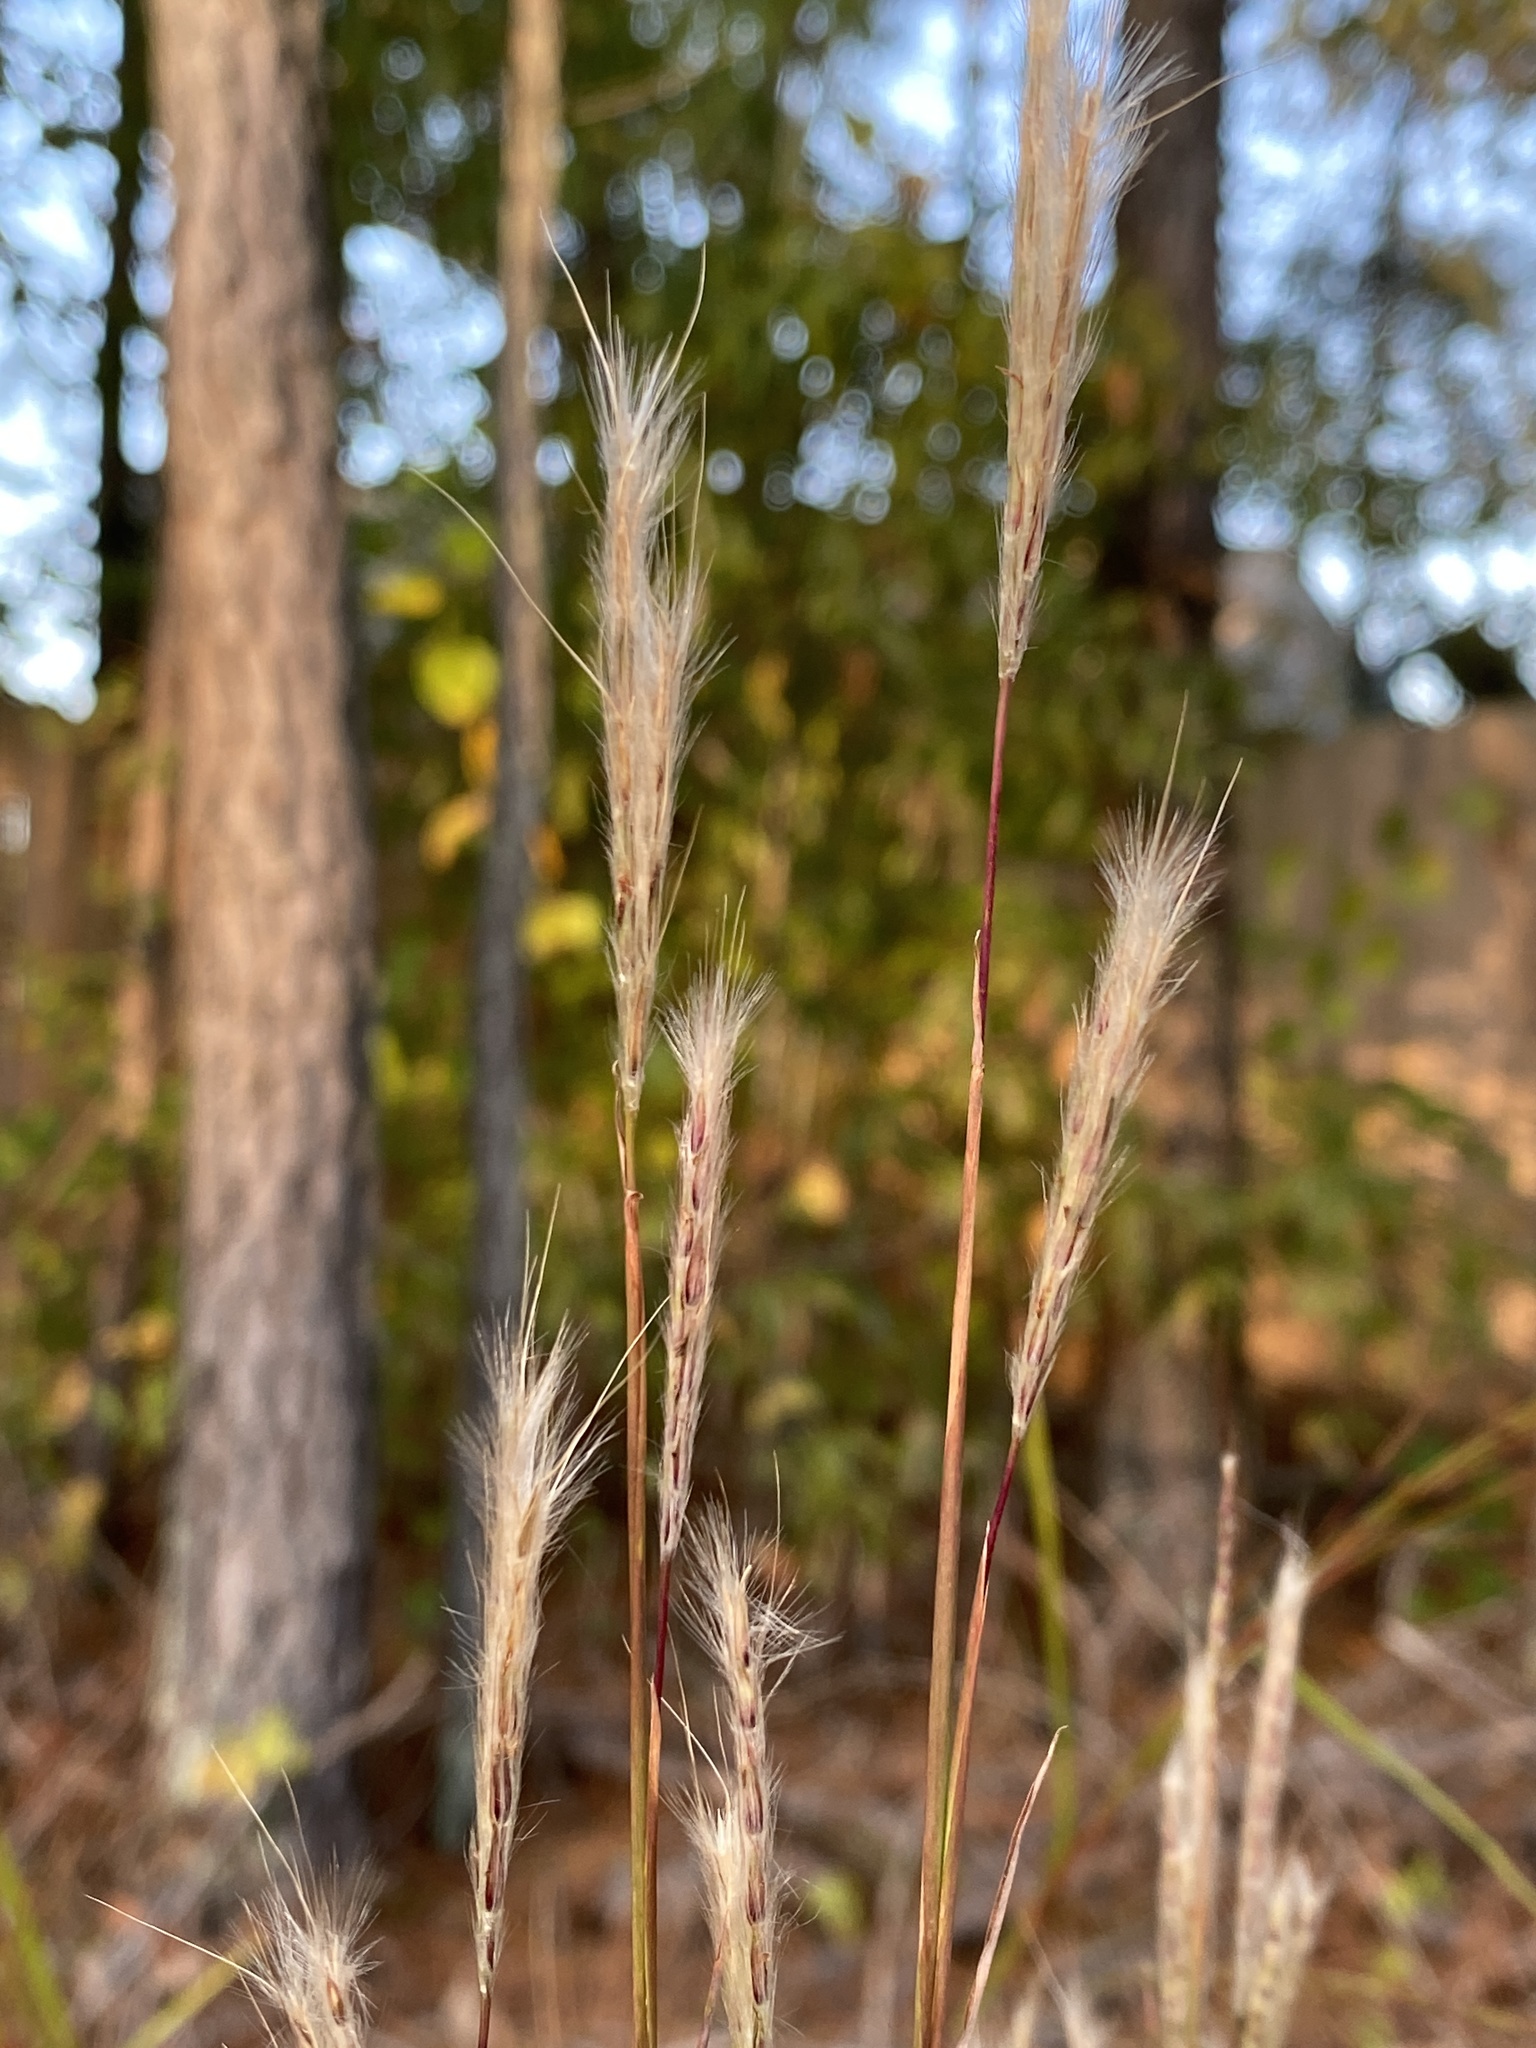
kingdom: Plantae
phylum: Tracheophyta
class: Liliopsida
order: Poales
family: Poaceae
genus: Andropogon
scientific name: Andropogon ternarius
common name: Split bluestem
